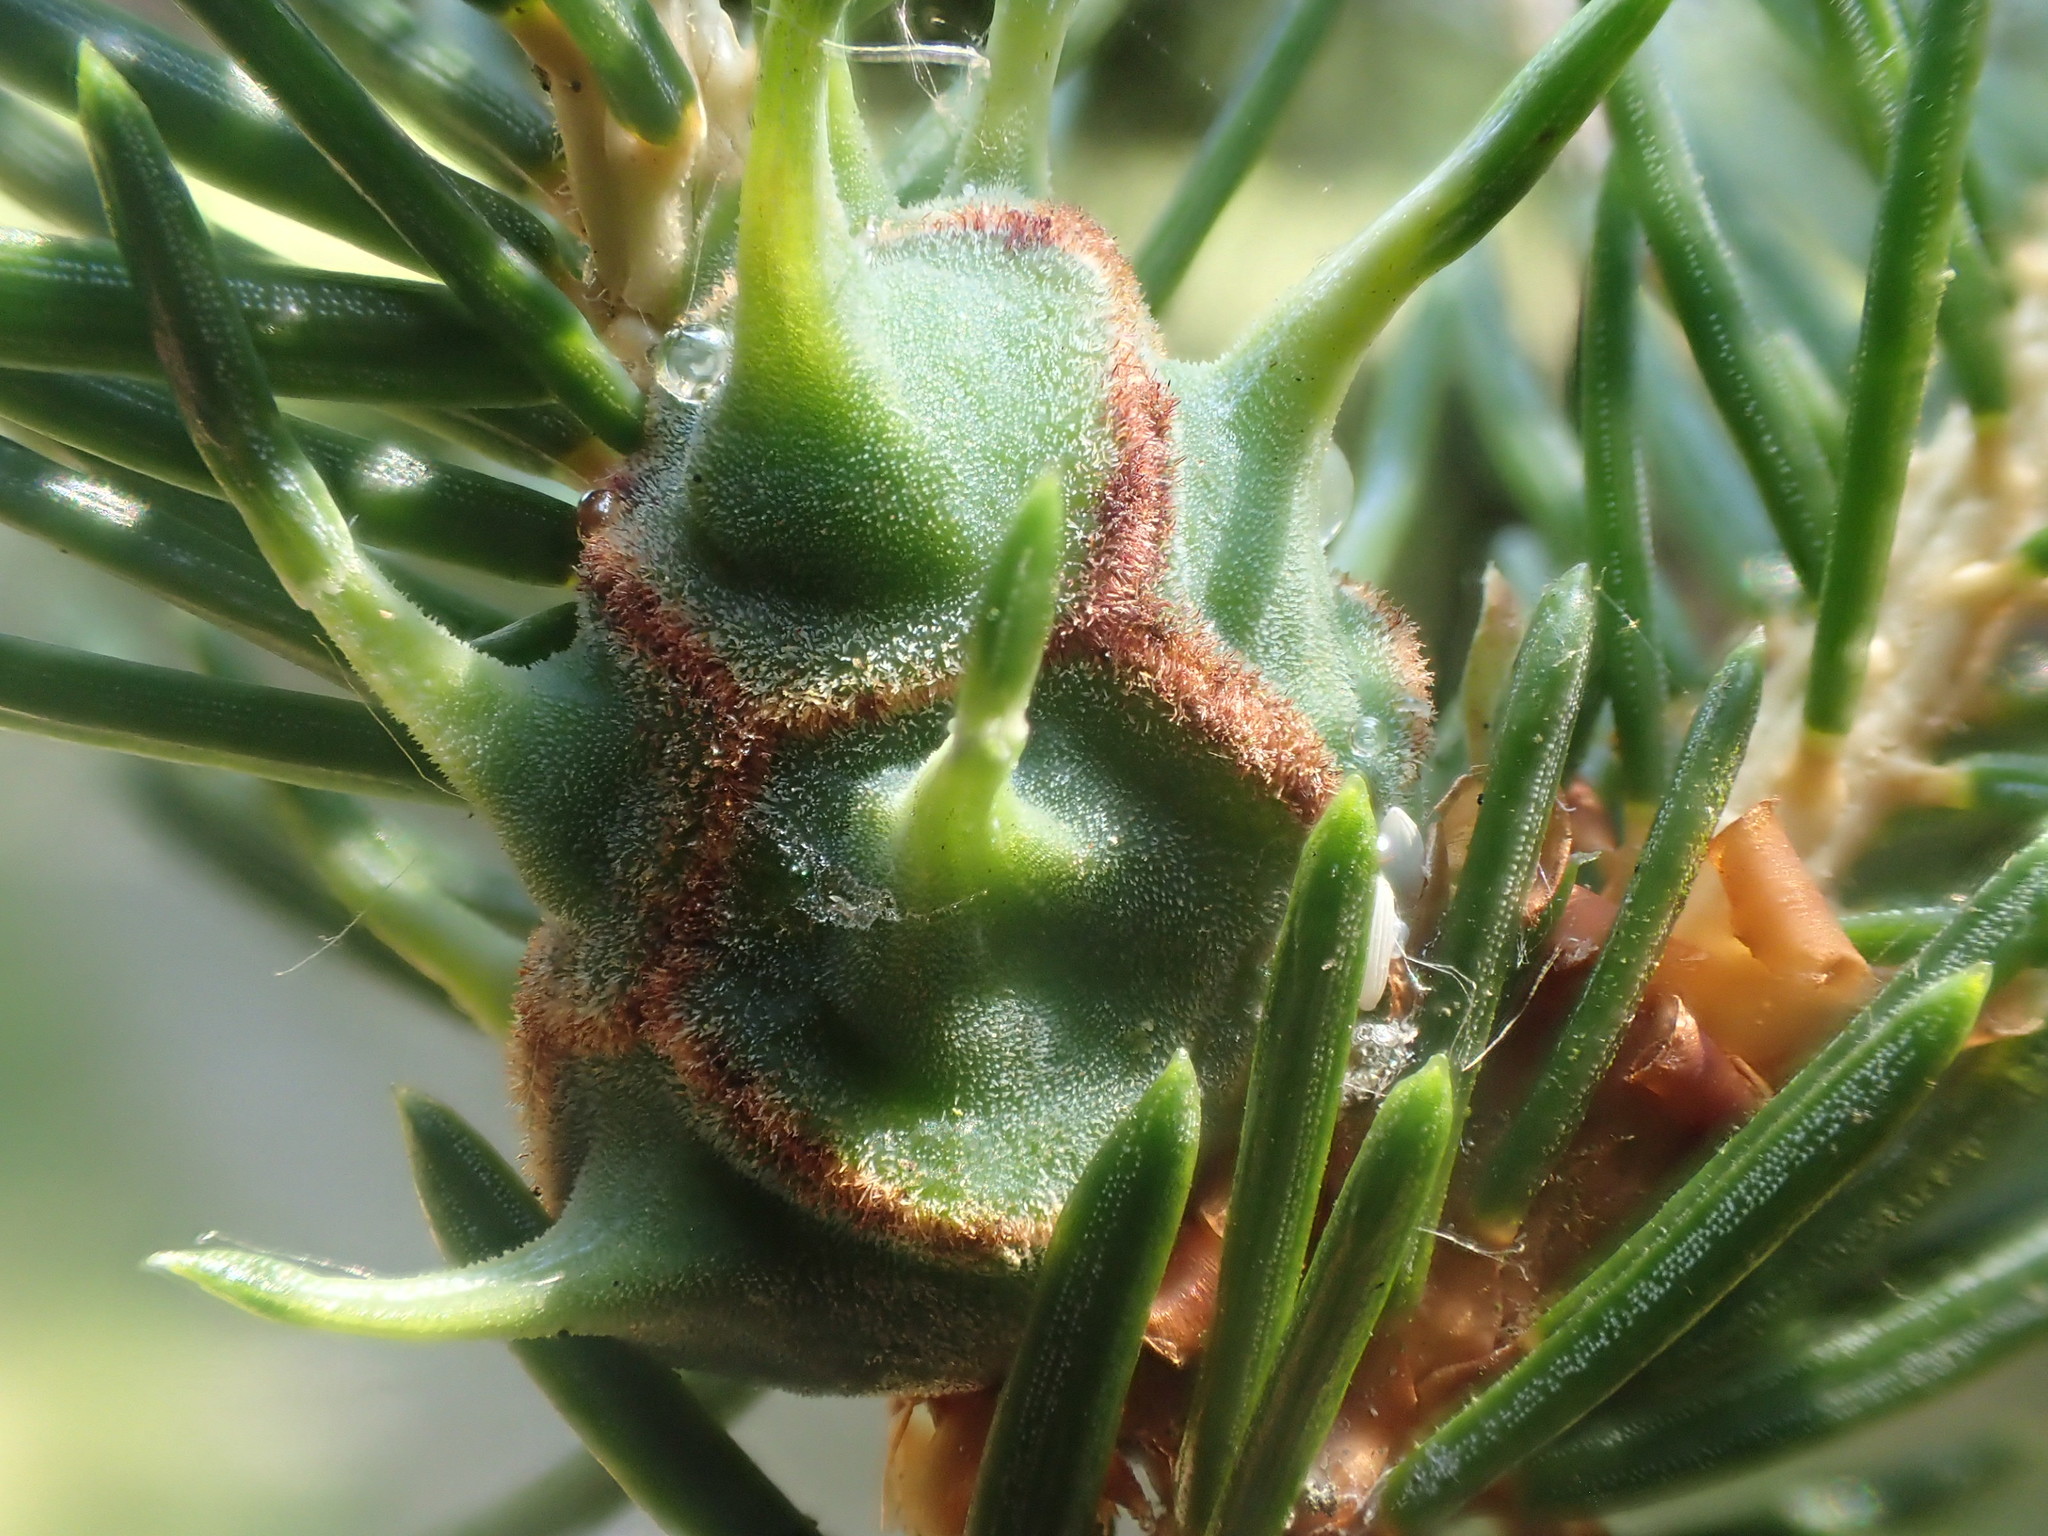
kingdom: Animalia
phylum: Arthropoda
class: Insecta
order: Hemiptera
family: Adelgidae
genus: Adelges
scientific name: Adelges abietis
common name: Eastern spruce gall adelgid
